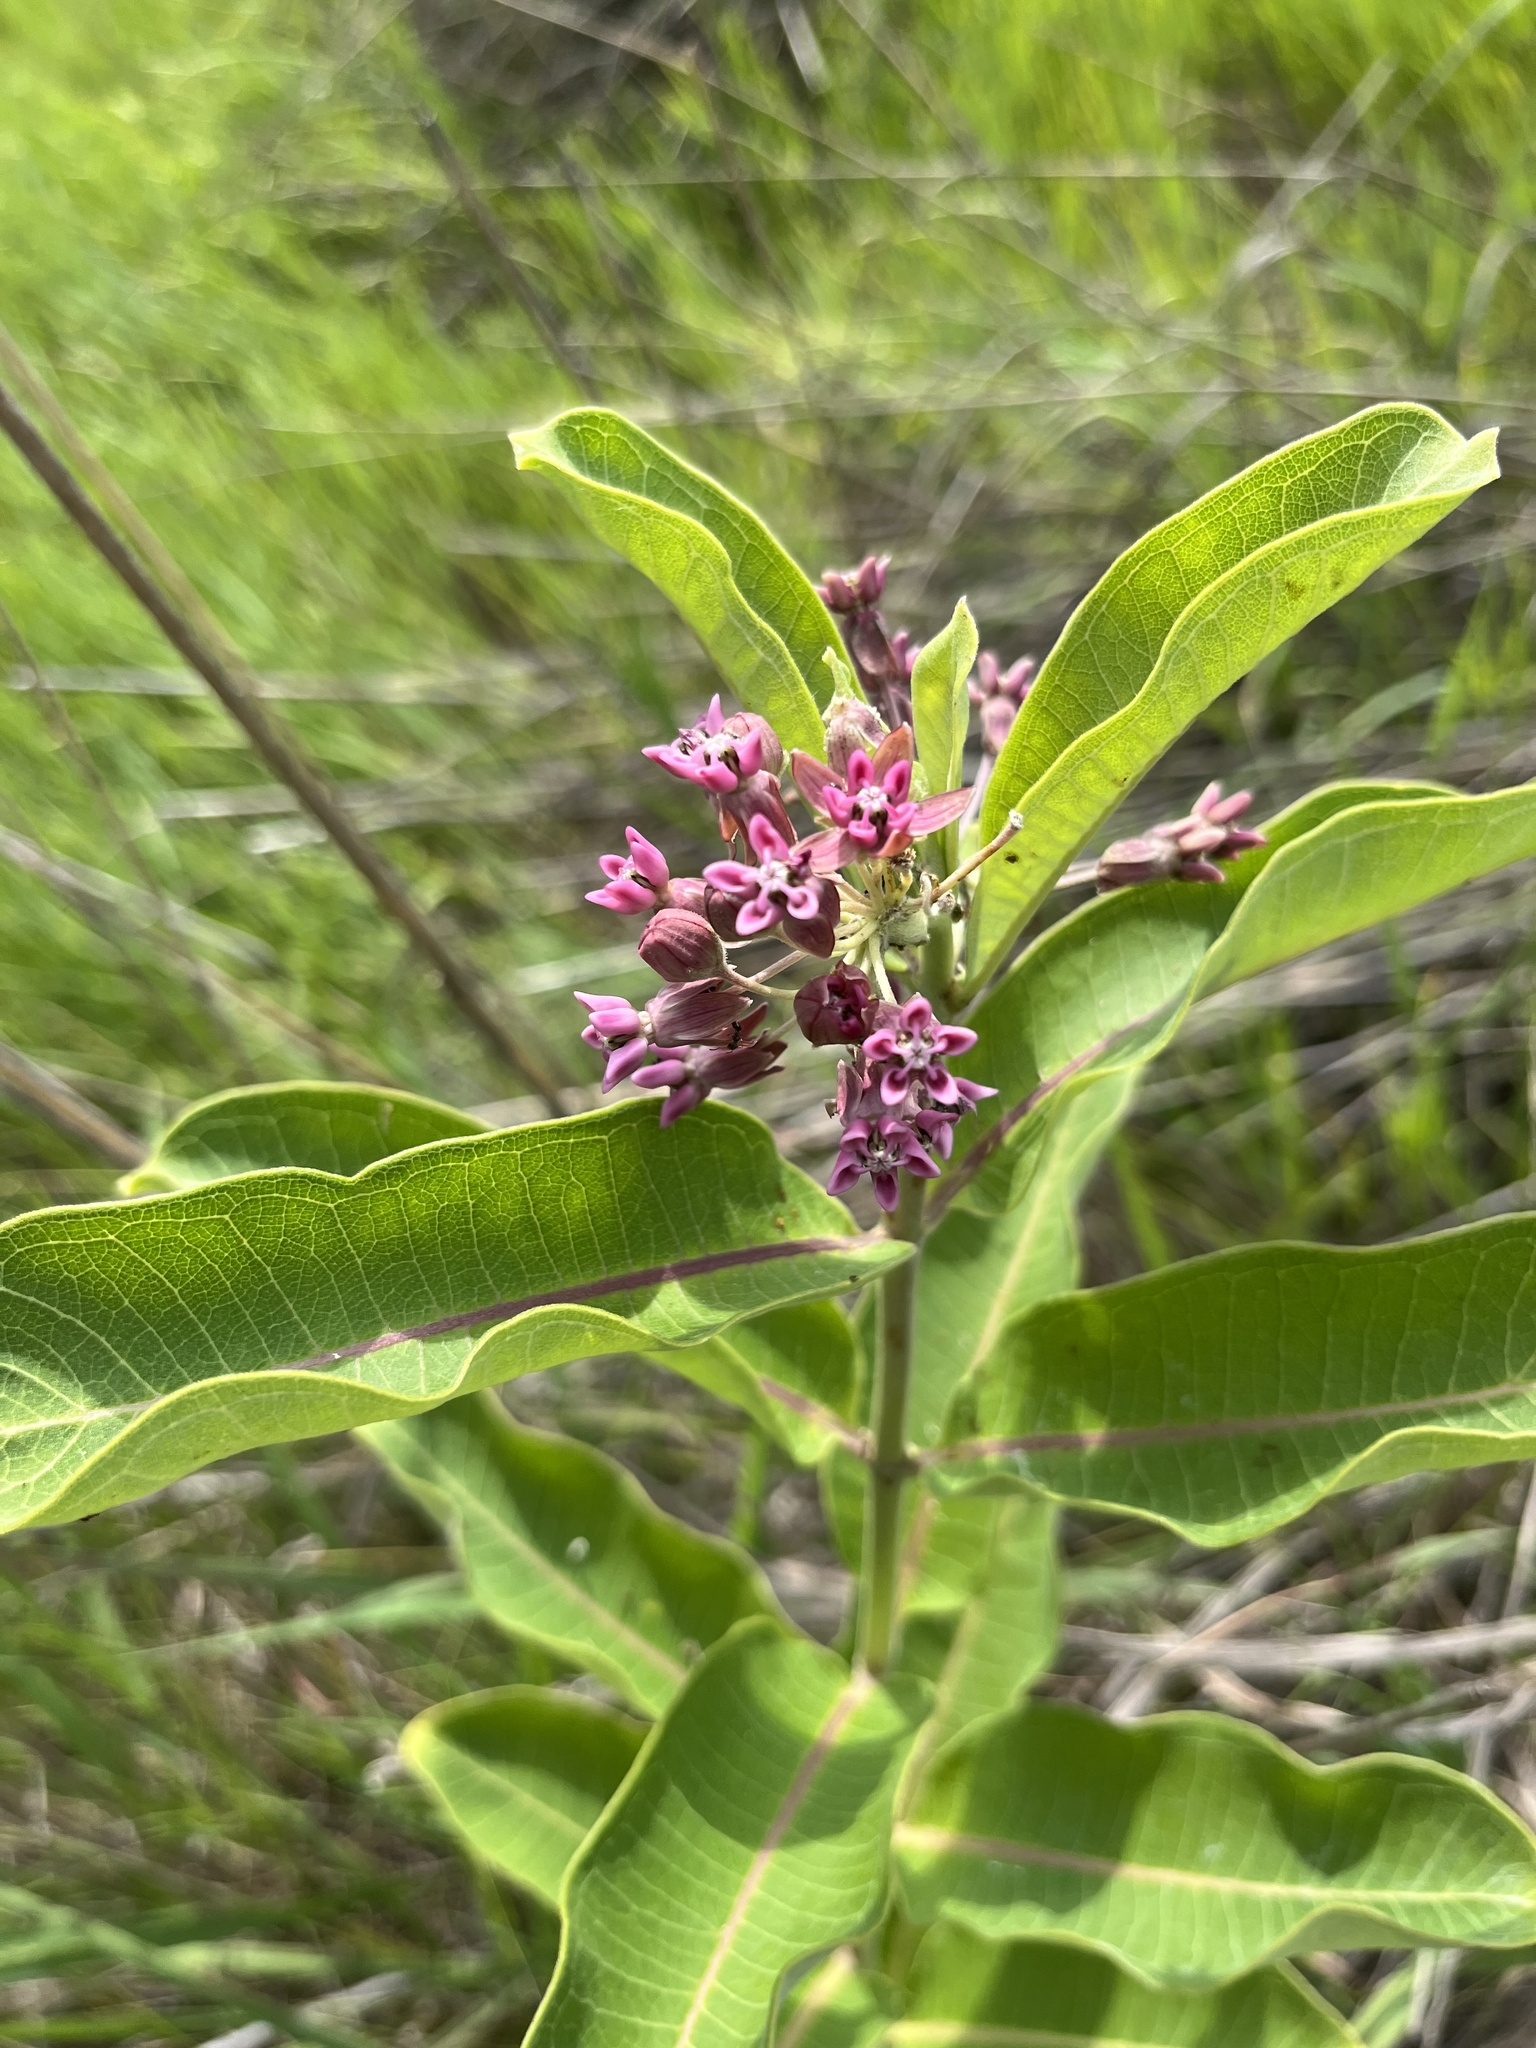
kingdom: Plantae
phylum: Tracheophyta
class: Magnoliopsida
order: Gentianales
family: Apocynaceae
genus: Asclepias
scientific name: Asclepias syriaca
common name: Common milkweed
